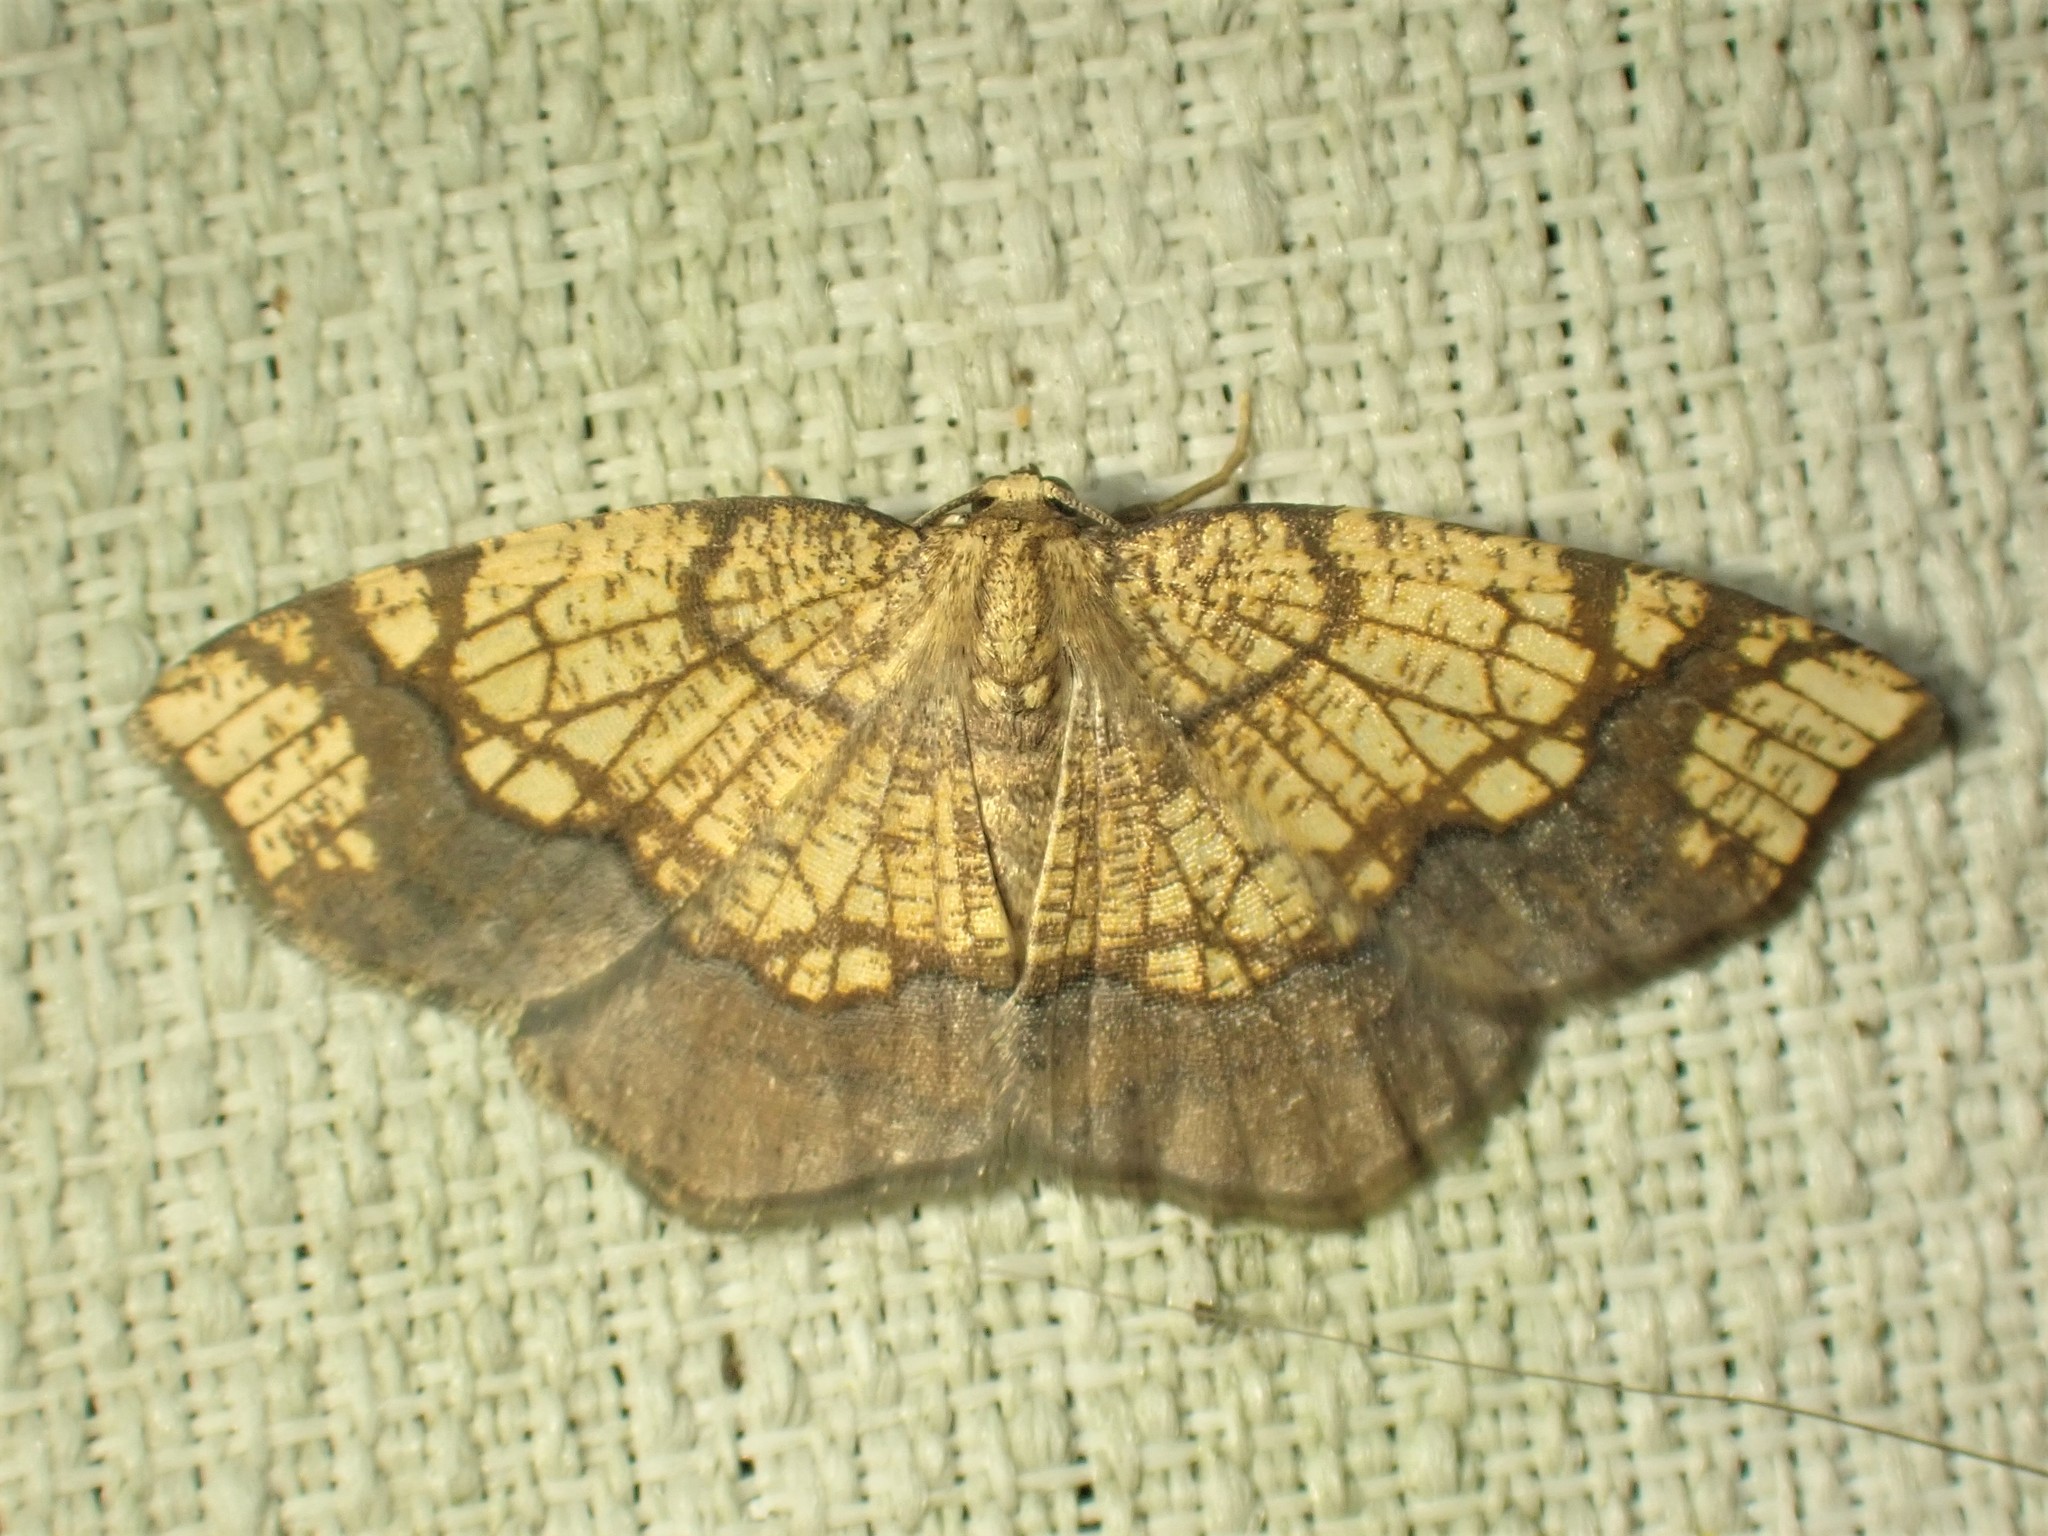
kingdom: Animalia
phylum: Arthropoda
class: Insecta
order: Lepidoptera
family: Geometridae
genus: Nematocampa
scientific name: Nematocampa resistaria
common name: Horned spanworm moth
